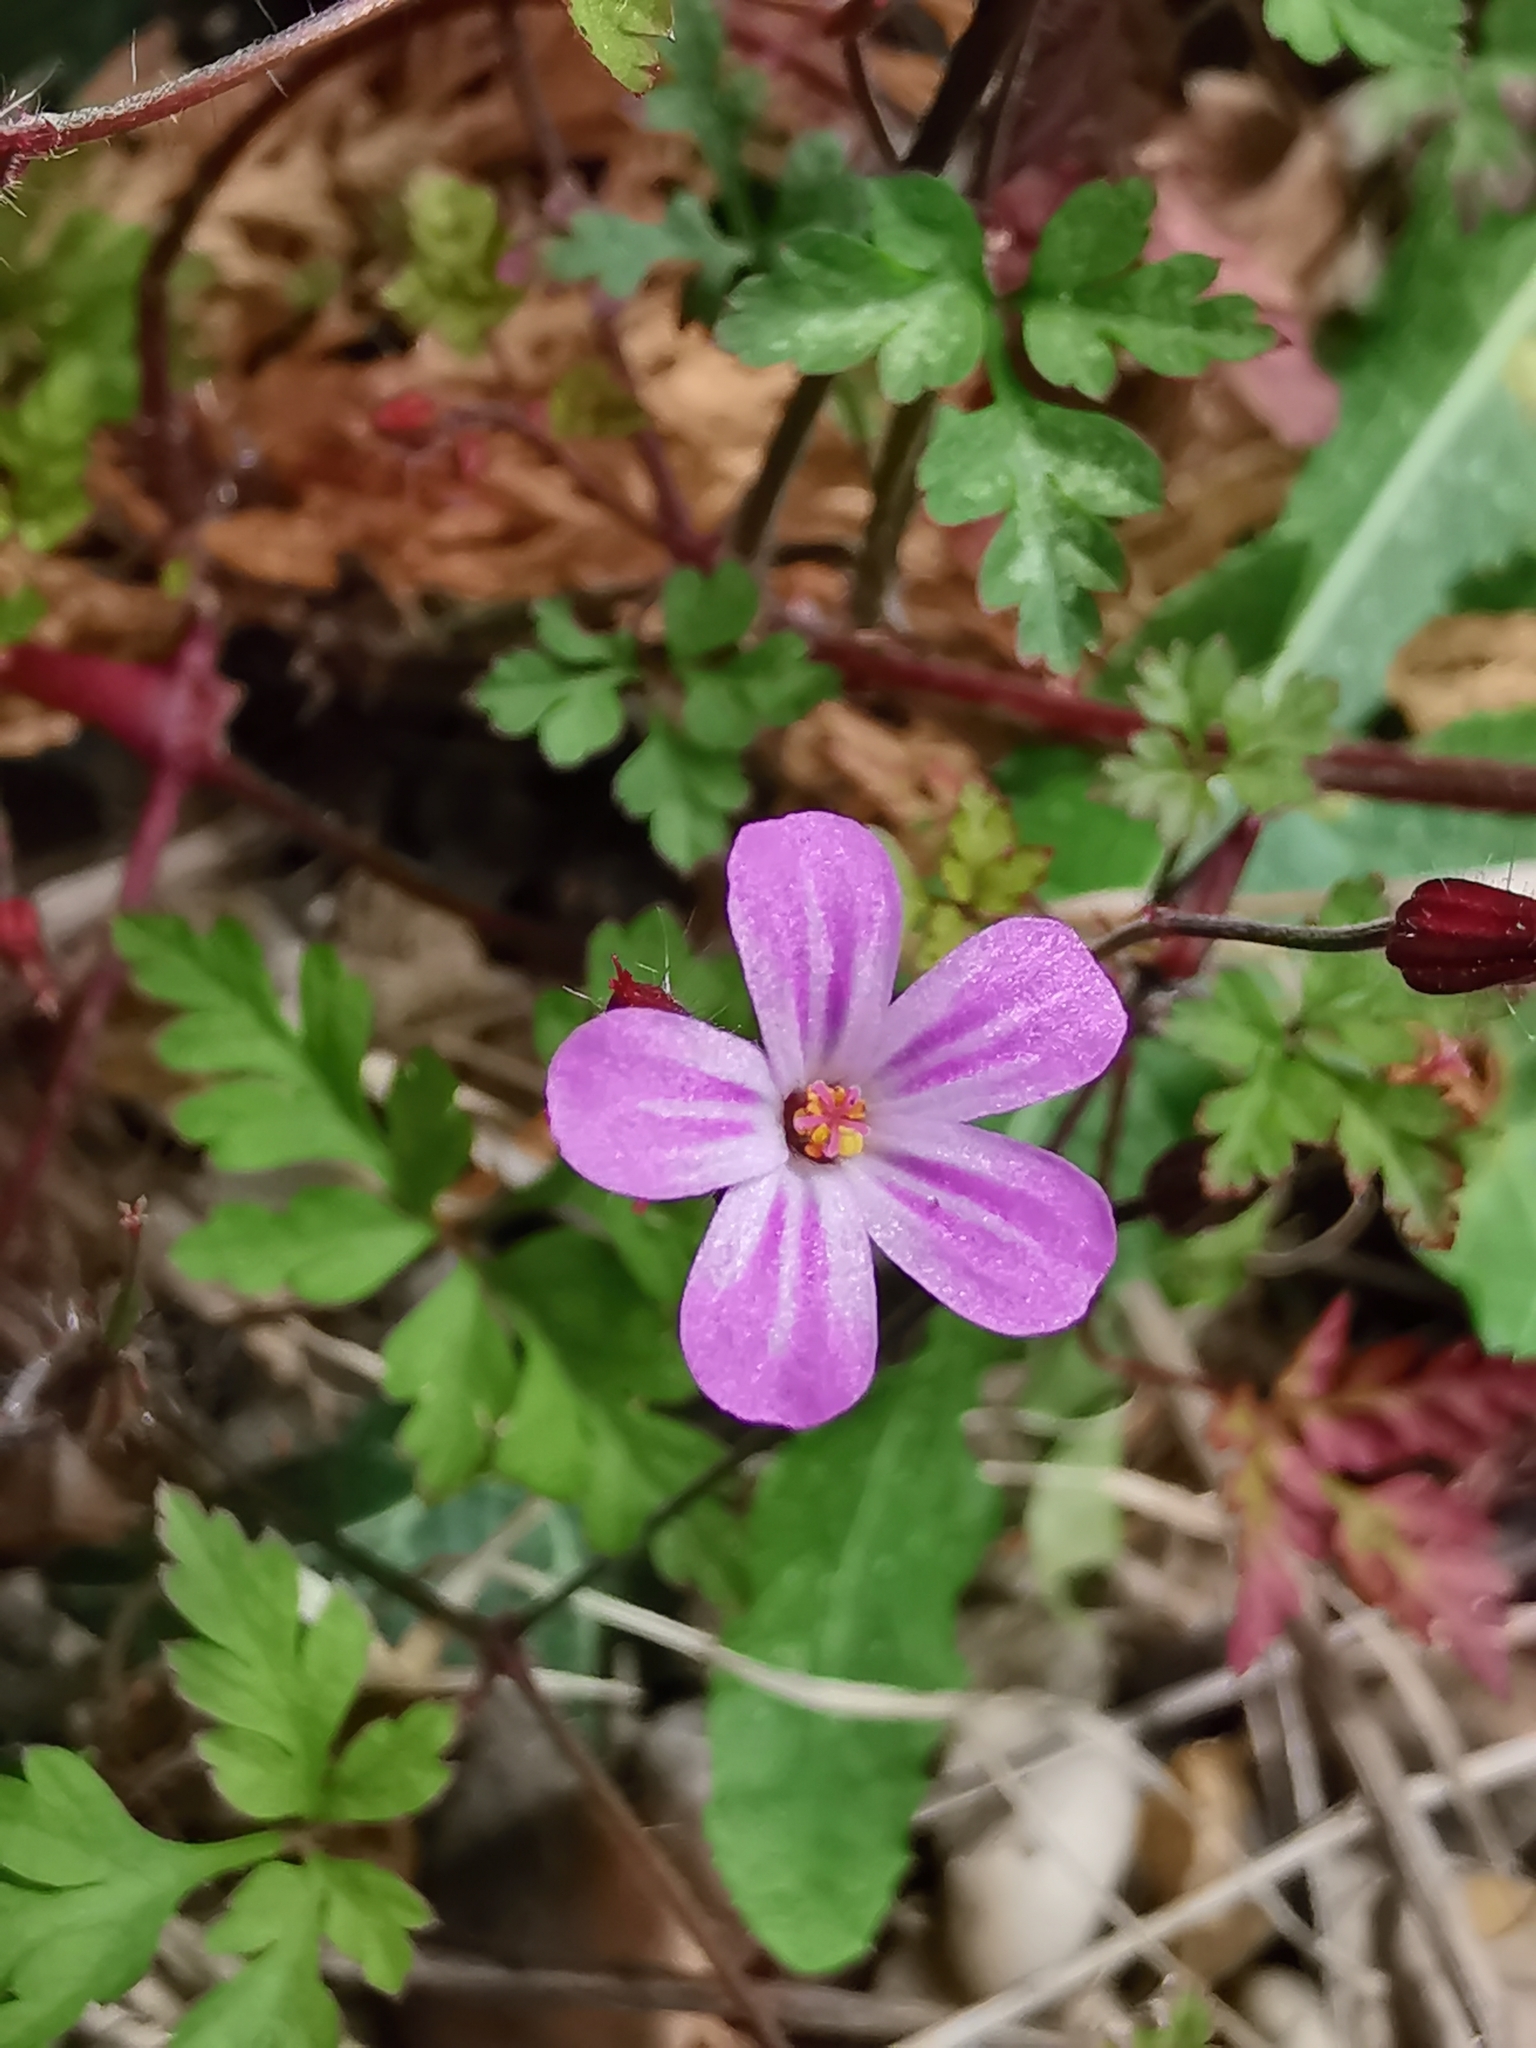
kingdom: Plantae
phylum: Tracheophyta
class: Magnoliopsida
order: Geraniales
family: Geraniaceae
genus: Geranium
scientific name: Geranium robertianum
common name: Herb-robert
